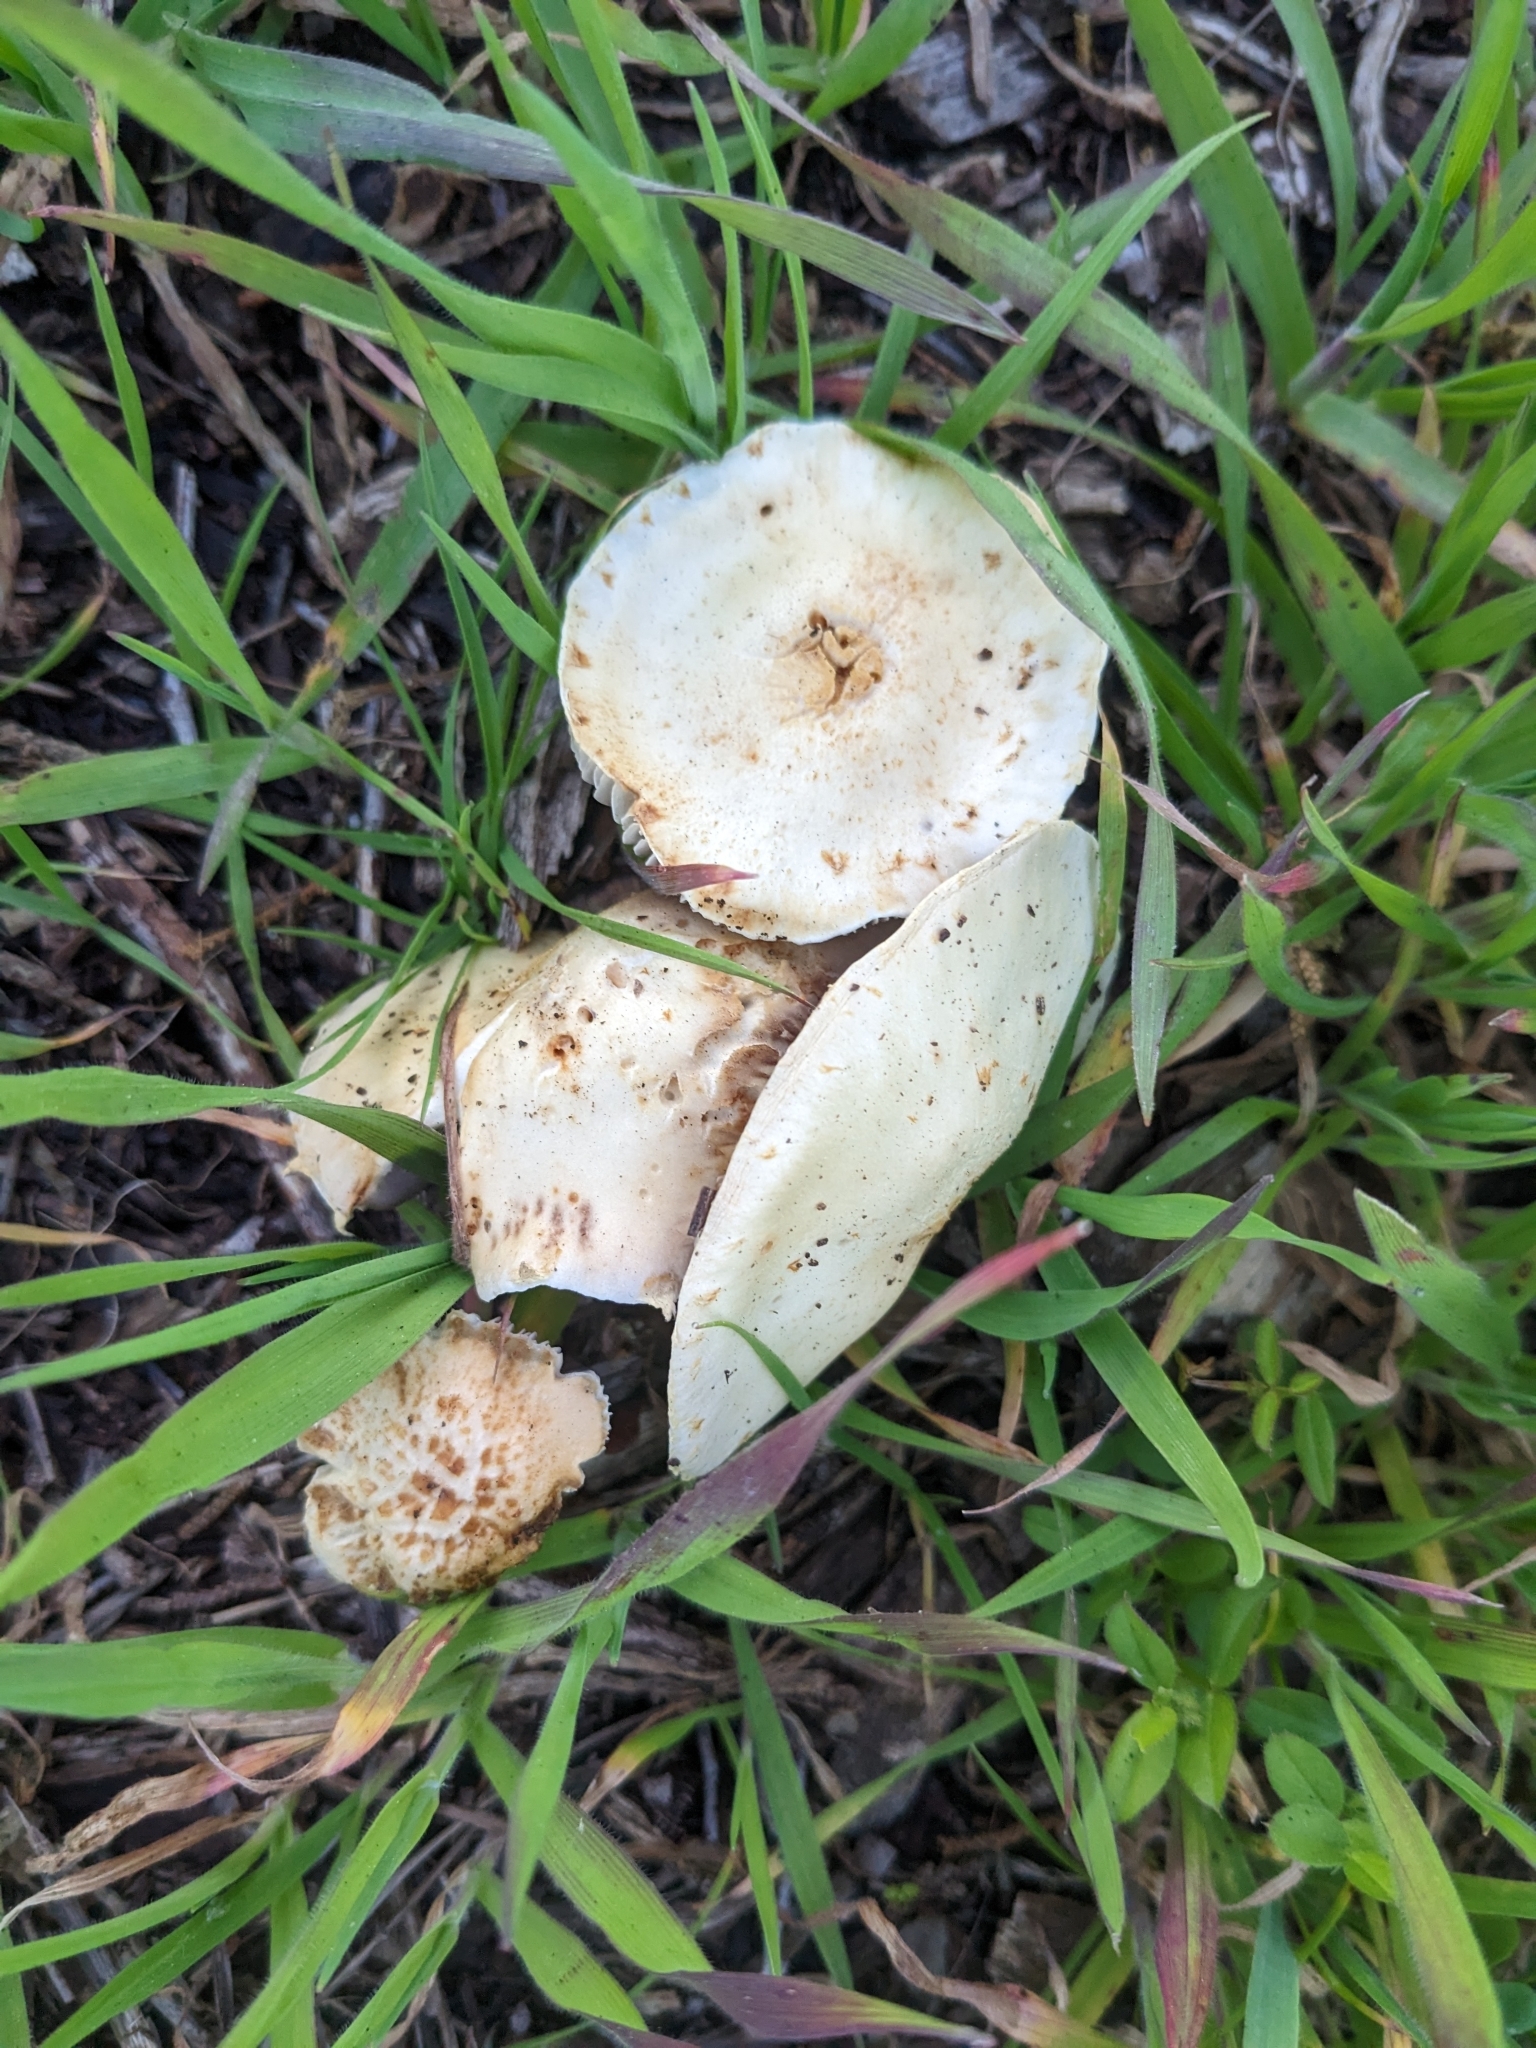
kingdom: Fungi
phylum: Basidiomycota
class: Agaricomycetes
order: Agaricales
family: Strophariaceae
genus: Leratiomyces
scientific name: Leratiomyces percevalii
